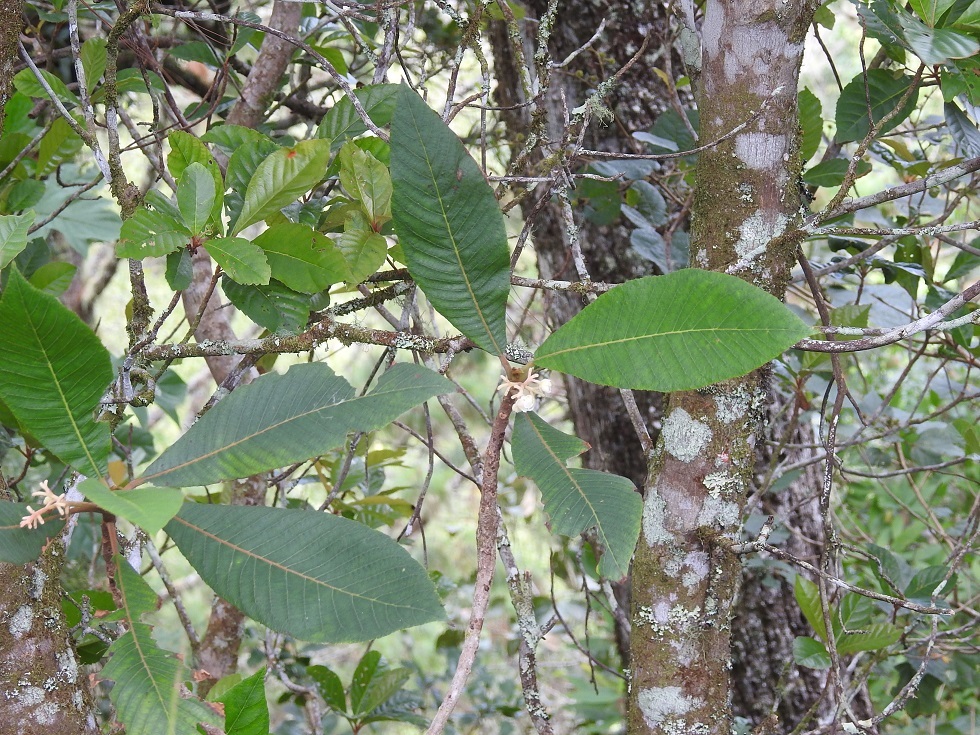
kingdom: Plantae
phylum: Tracheophyta
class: Magnoliopsida
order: Ericales
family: Actinidiaceae
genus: Saurauia
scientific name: Saurauia scabrida
